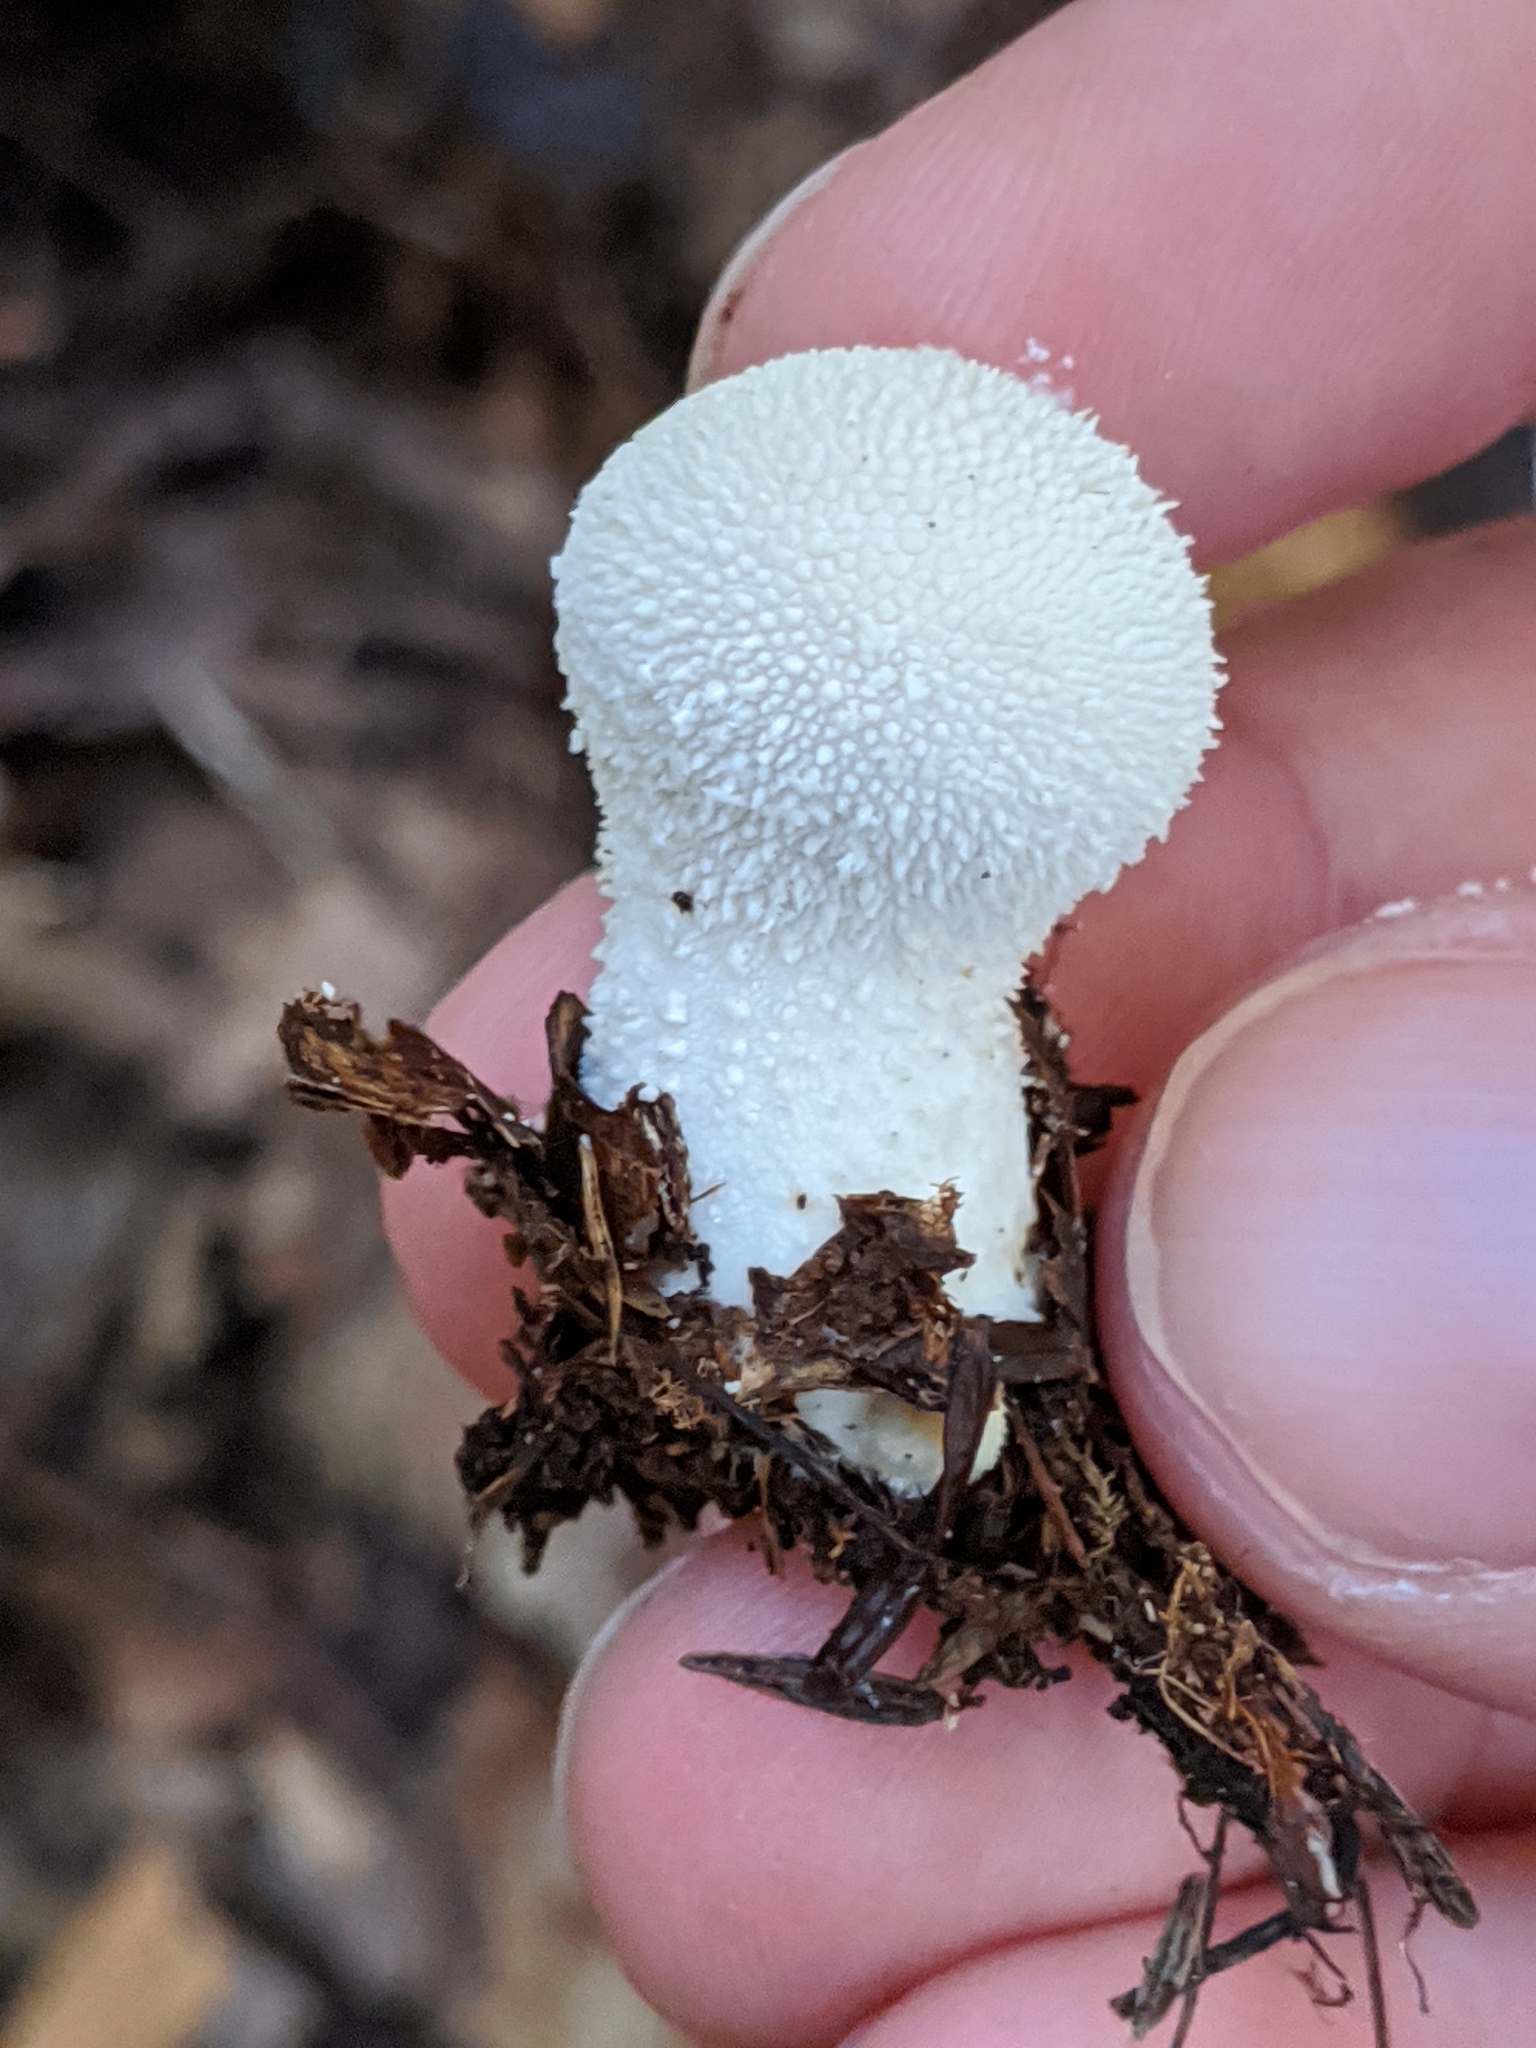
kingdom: Fungi
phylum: Basidiomycota
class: Agaricomycetes
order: Agaricales
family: Lycoperdaceae
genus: Lycoperdon
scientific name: Lycoperdon perlatum
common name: Common puffball
